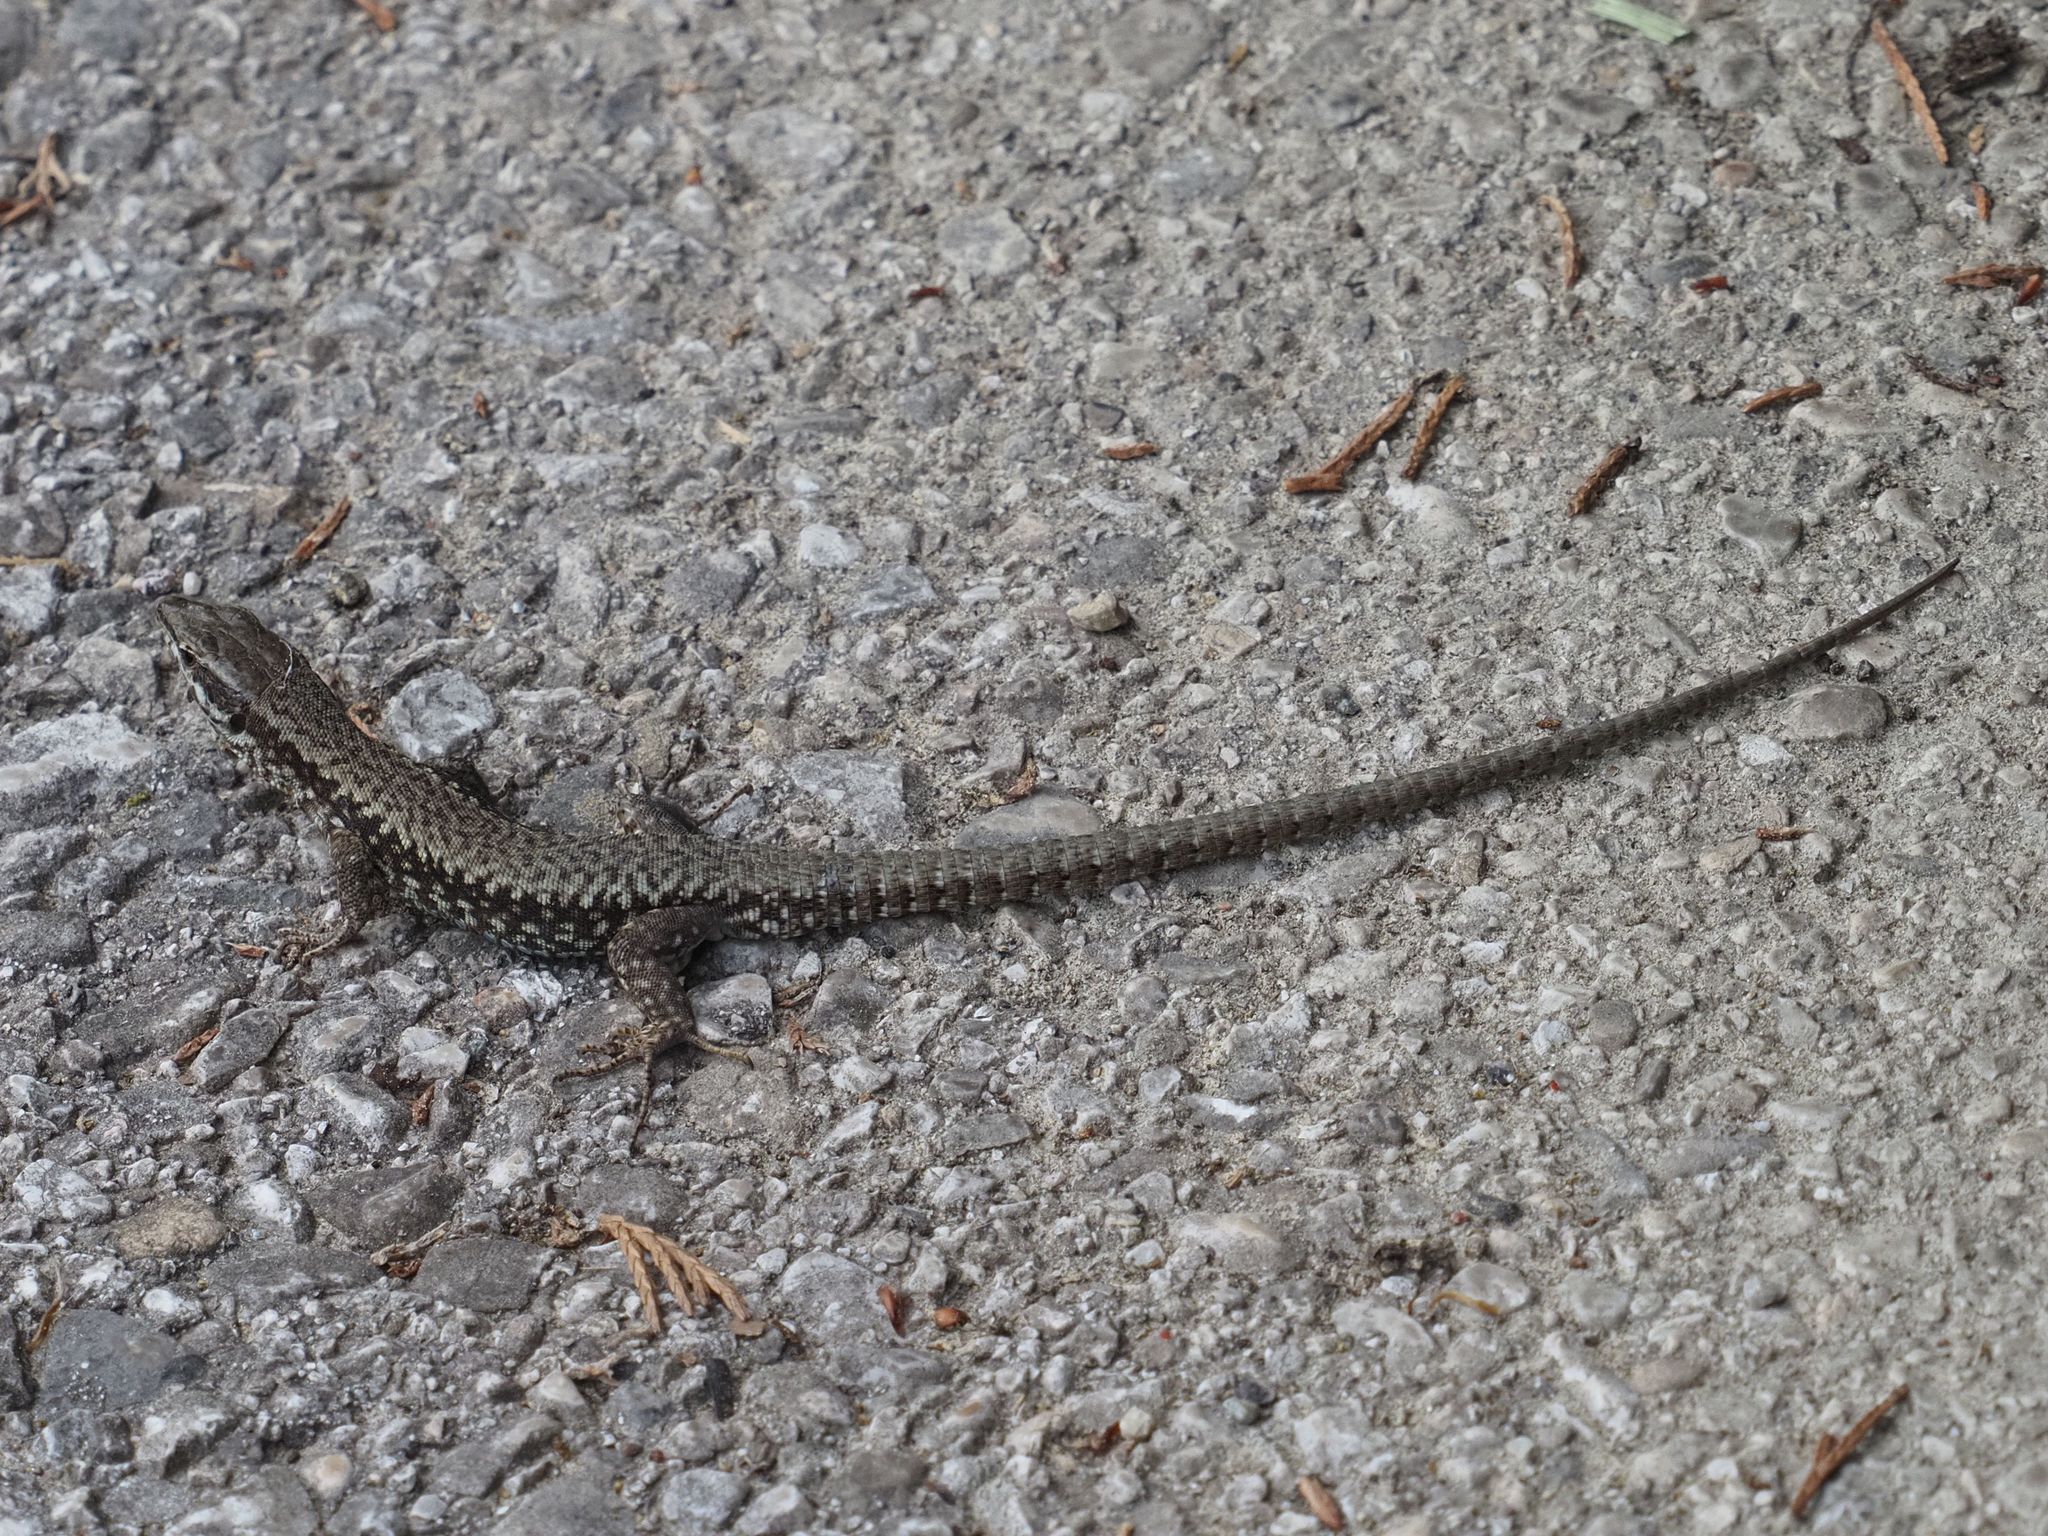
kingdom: Animalia
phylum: Chordata
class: Squamata
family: Lacertidae
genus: Podarcis
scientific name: Podarcis muralis
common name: Common wall lizard
